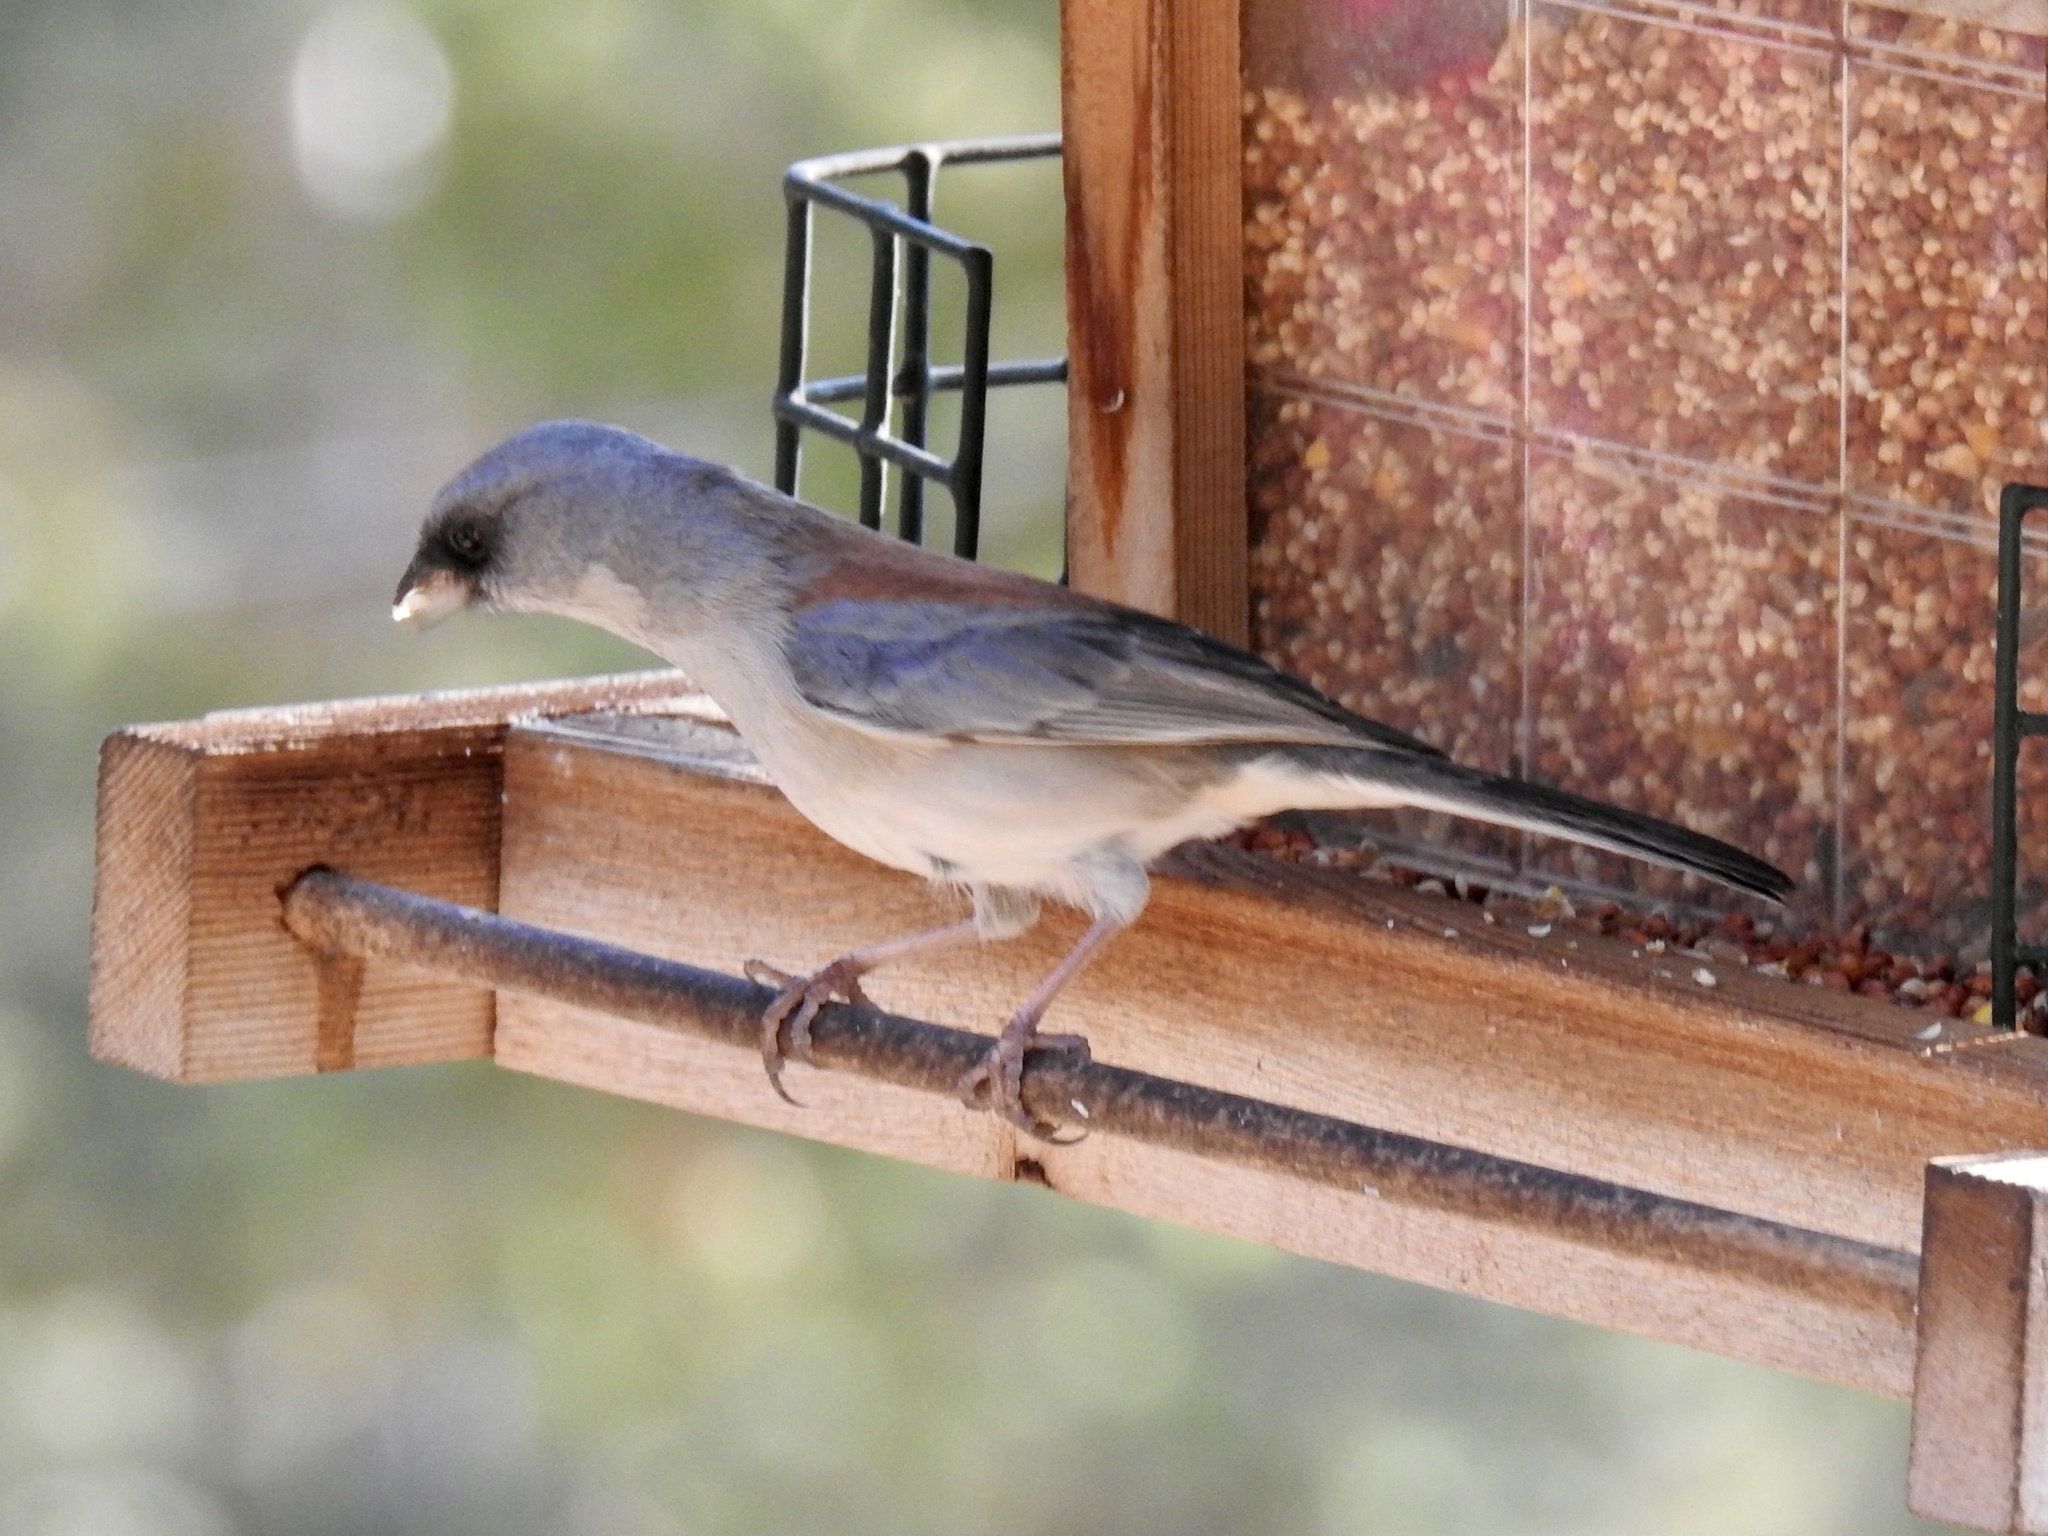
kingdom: Animalia
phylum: Chordata
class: Aves
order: Passeriformes
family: Passerellidae
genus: Junco
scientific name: Junco hyemalis
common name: Dark-eyed junco
